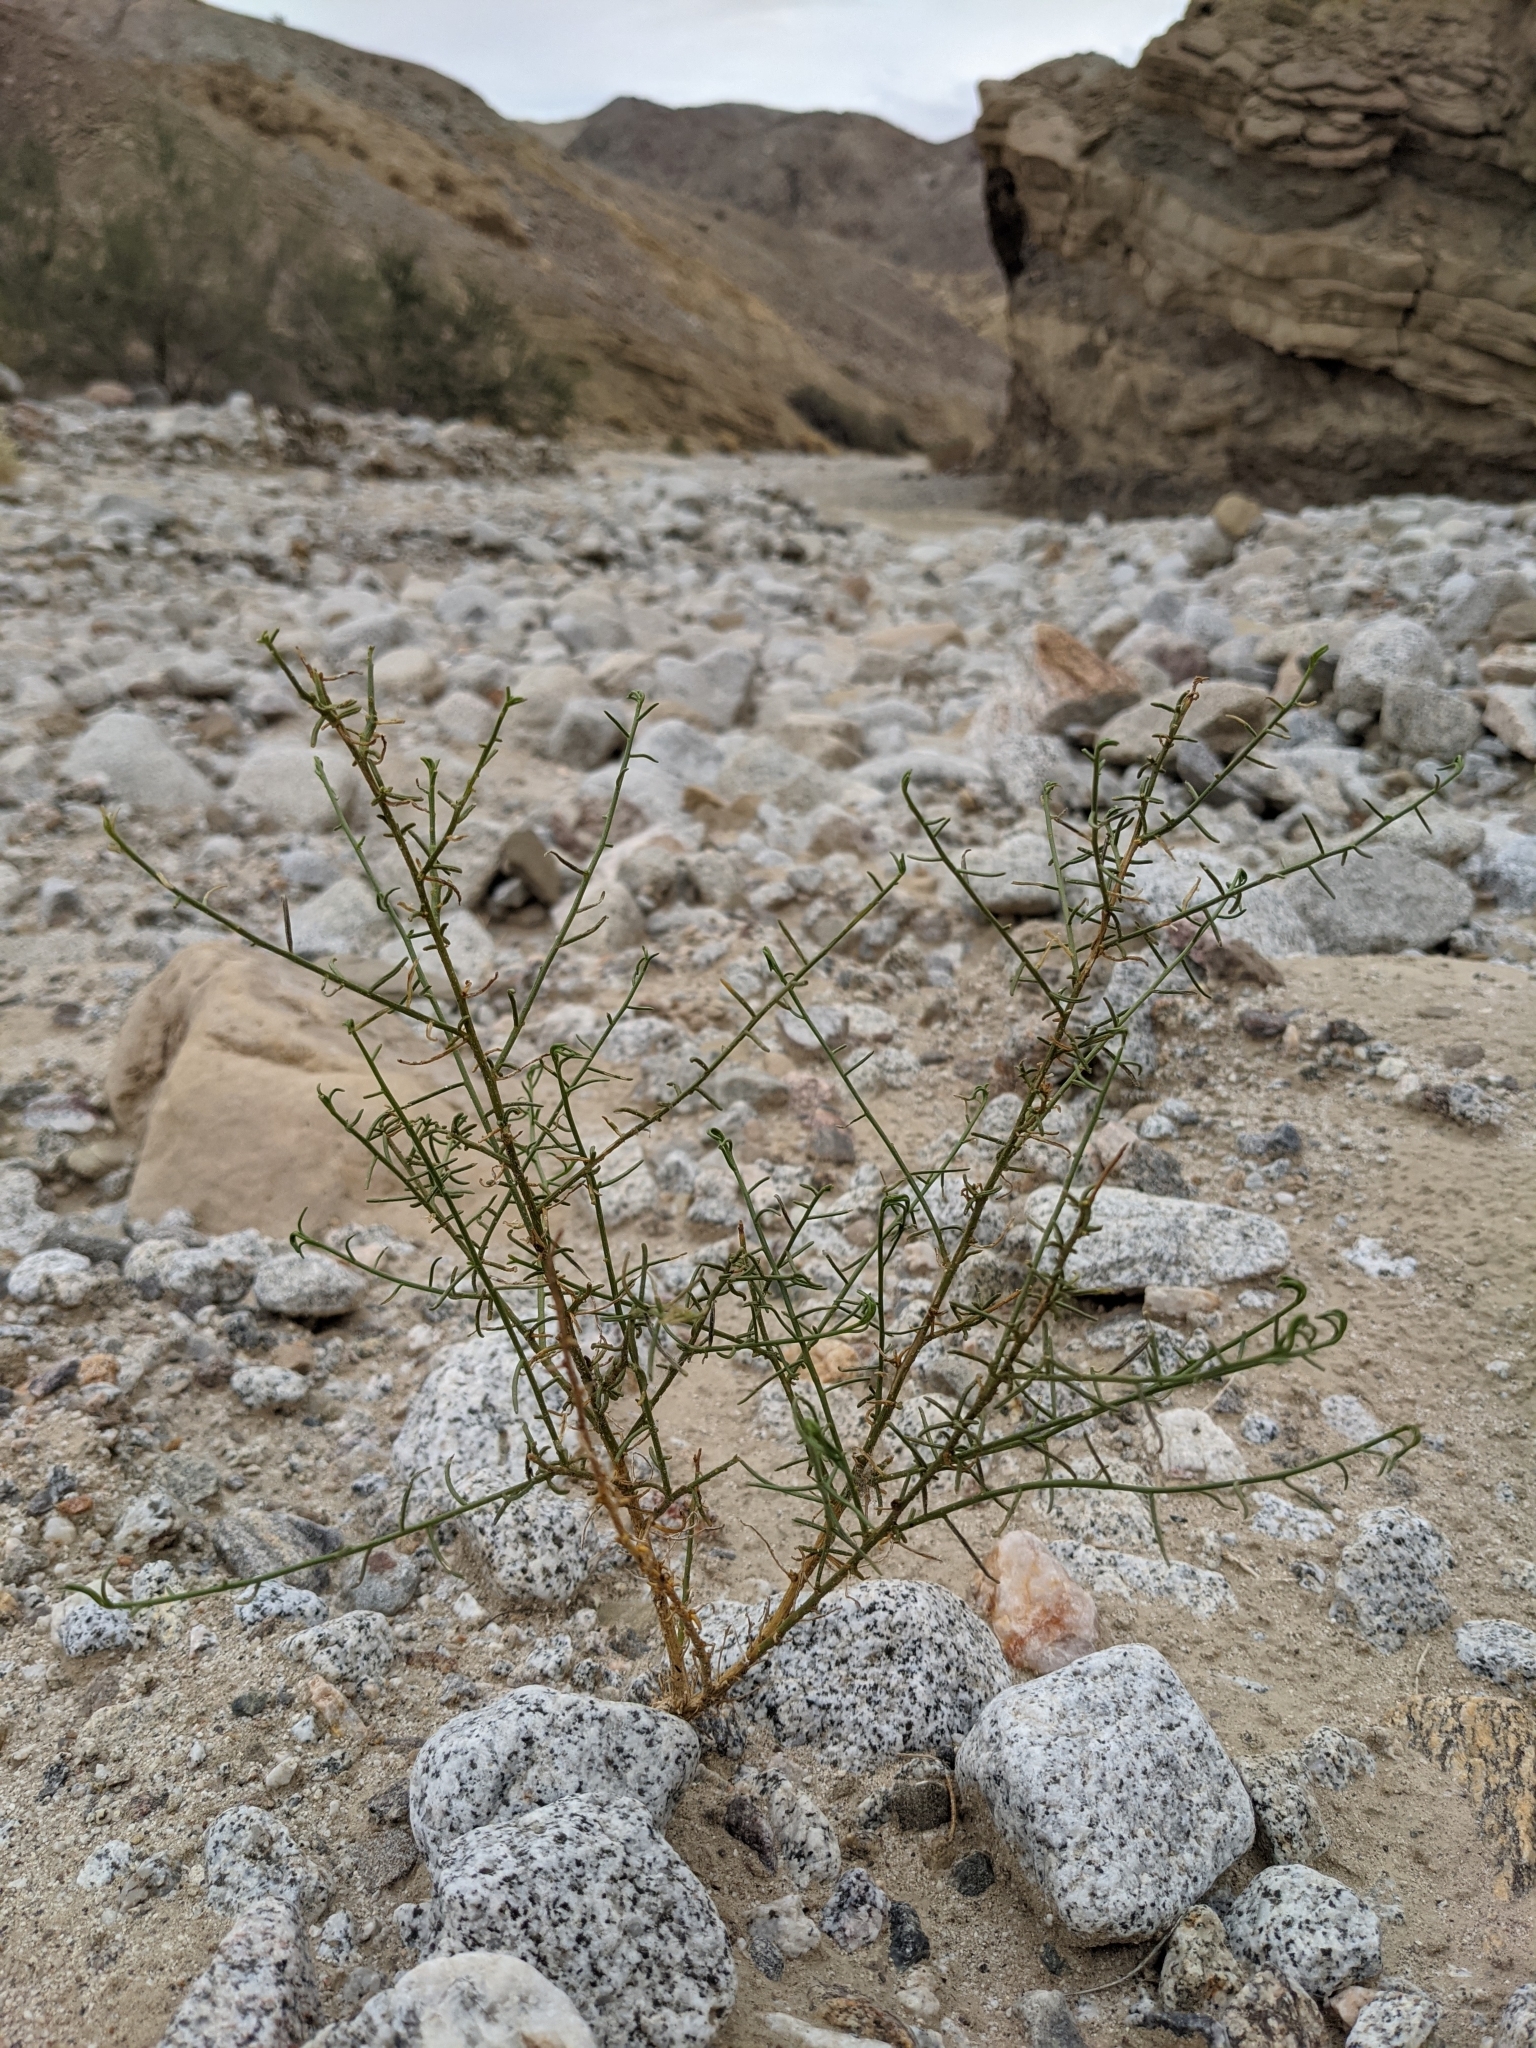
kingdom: Plantae
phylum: Tracheophyta
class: Magnoliopsida
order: Asterales
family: Asteraceae
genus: Ambrosia
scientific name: Ambrosia salsola
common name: Burrobrush
